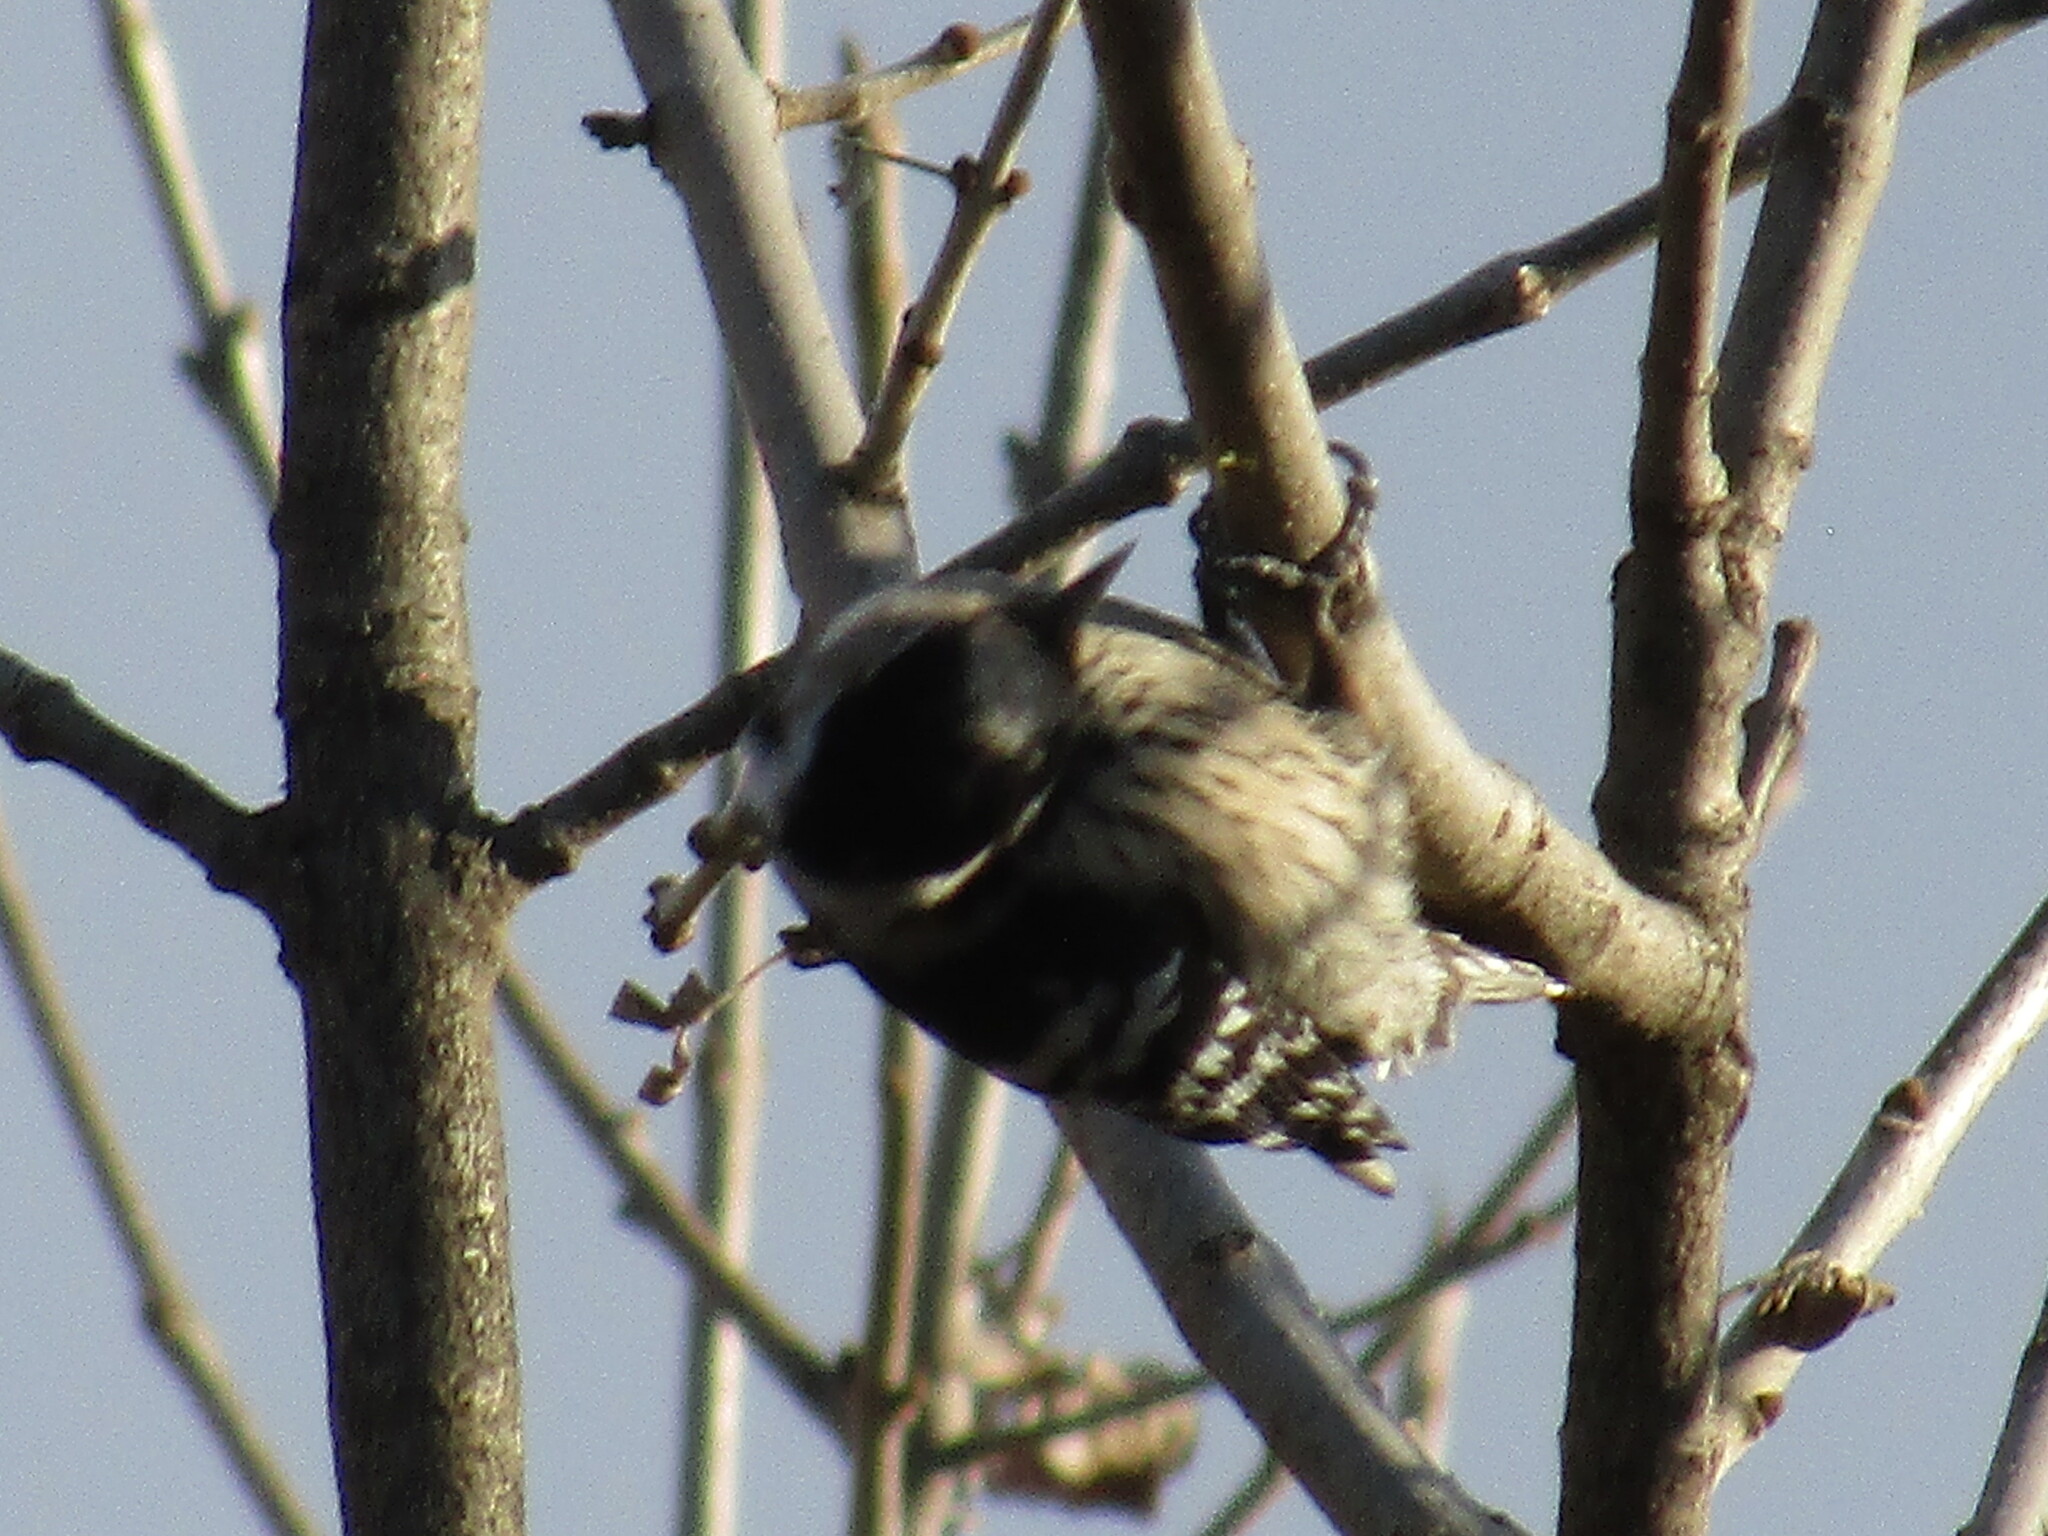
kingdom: Animalia
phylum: Chordata
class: Aves
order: Piciformes
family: Picidae
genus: Dryobates
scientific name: Dryobates minor
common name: Lesser spotted woodpecker
